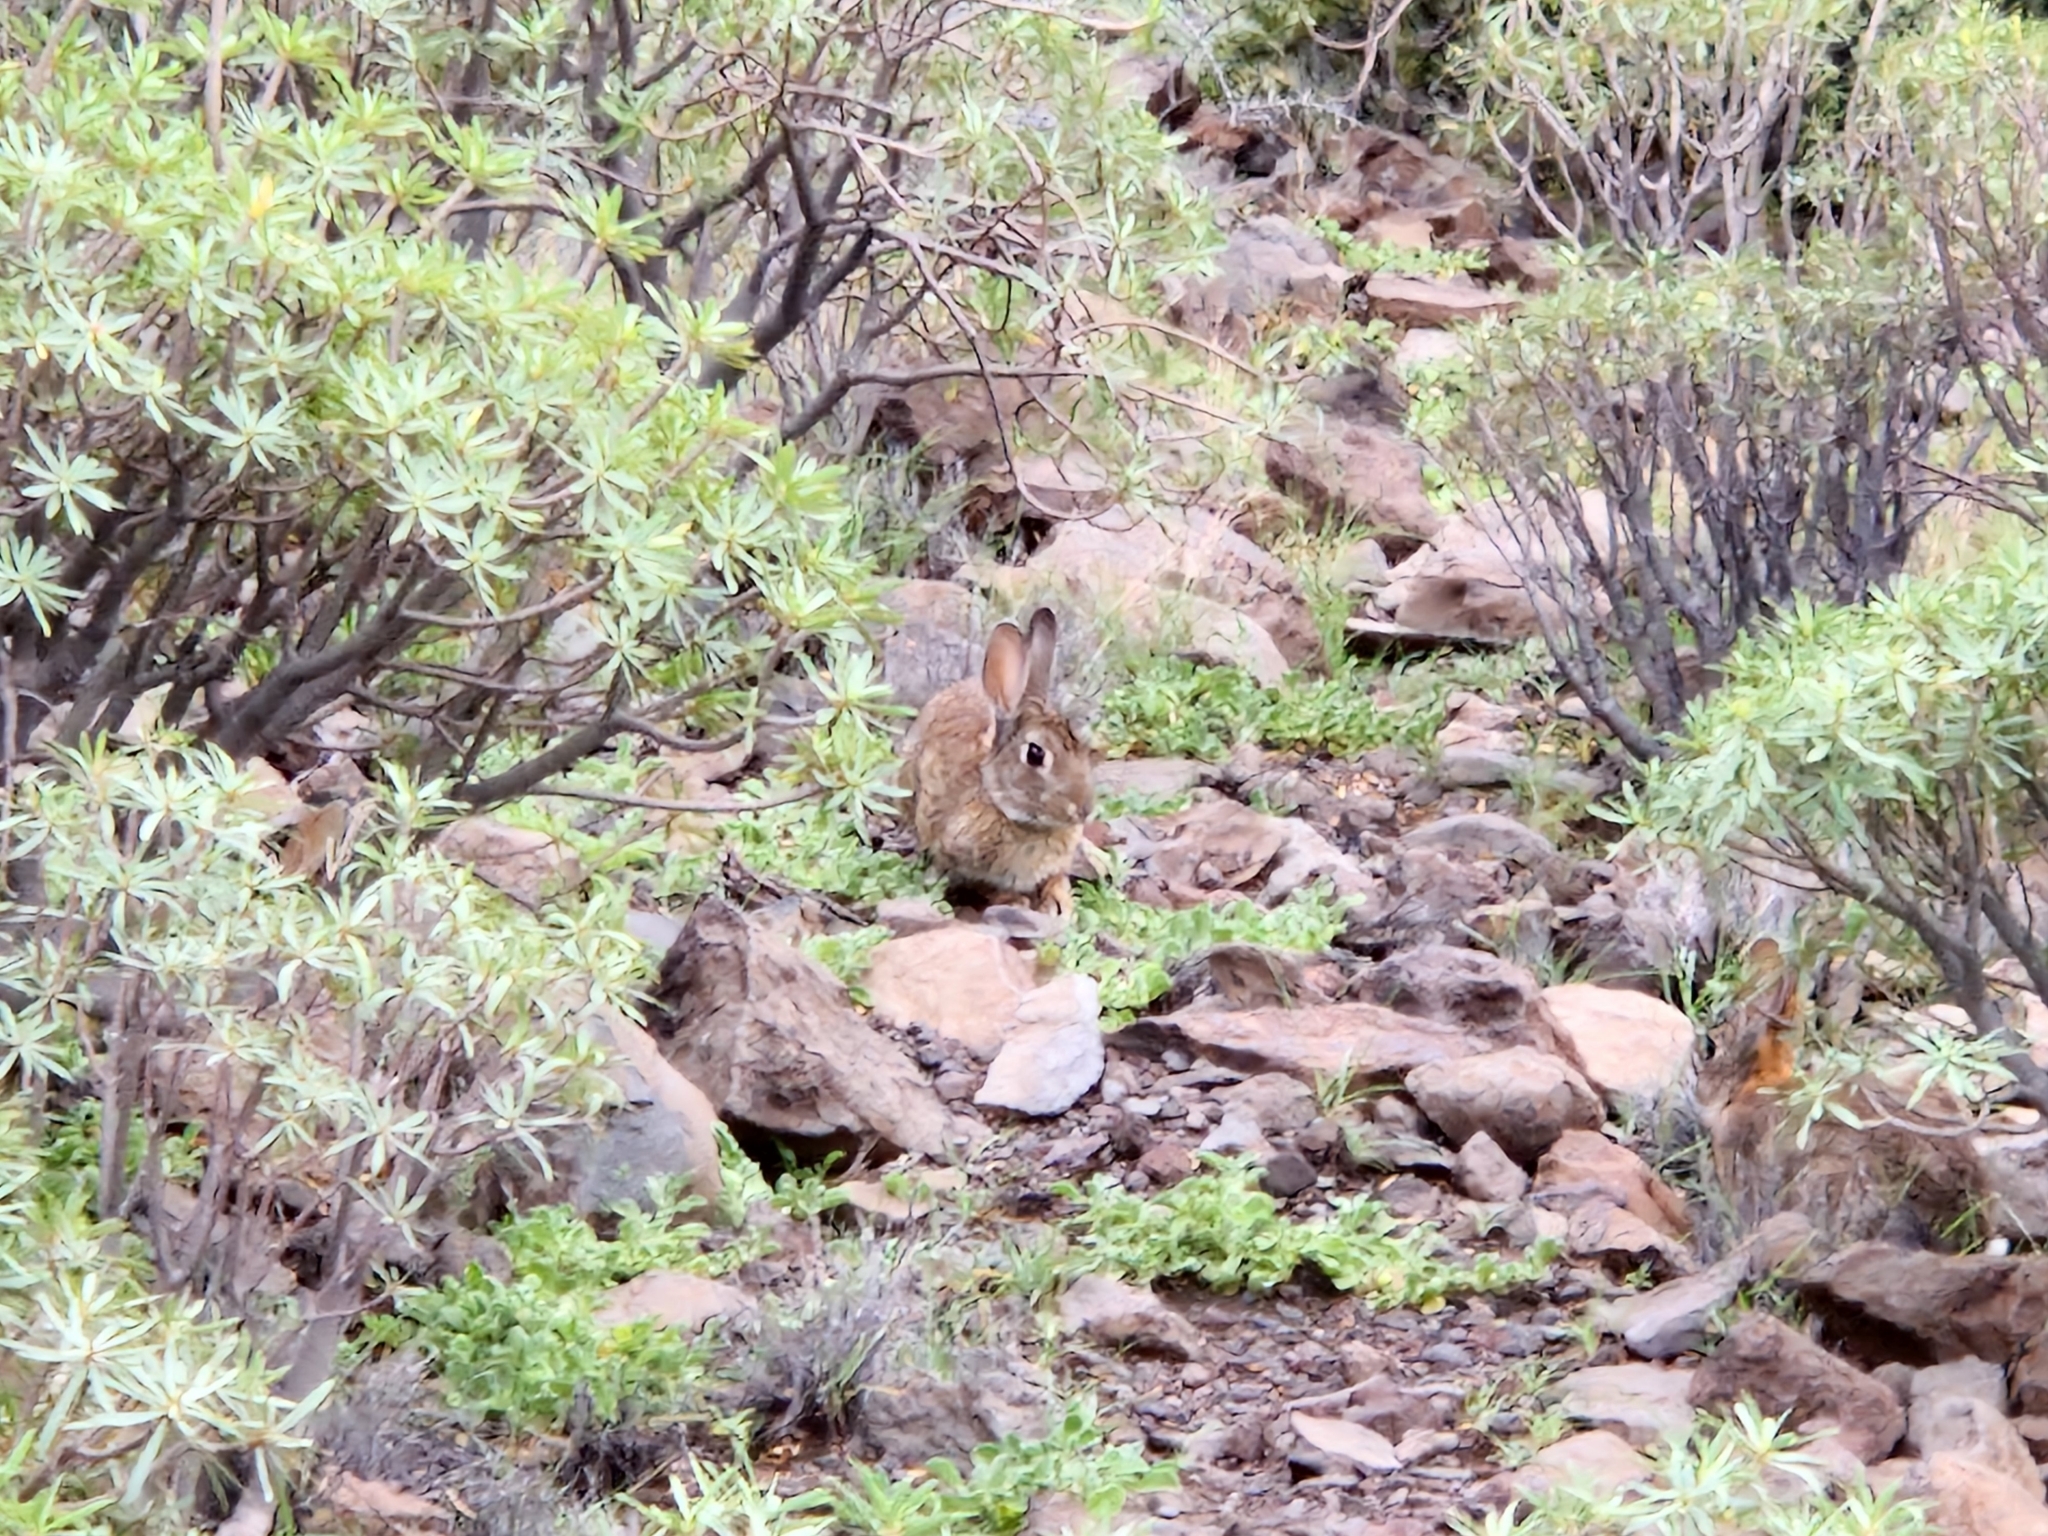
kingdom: Animalia
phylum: Chordata
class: Mammalia
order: Lagomorpha
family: Leporidae
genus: Oryctolagus
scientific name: Oryctolagus cuniculus
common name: European rabbit
